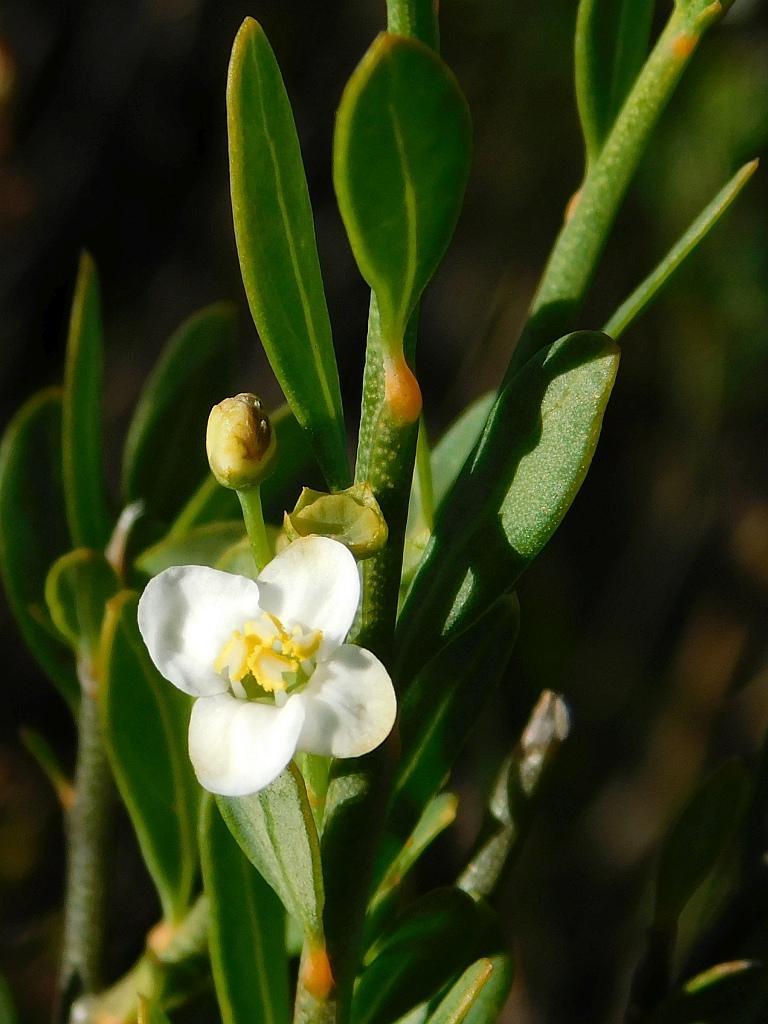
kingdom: Plantae
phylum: Tracheophyta
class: Magnoliopsida
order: Solanales
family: Montiniaceae
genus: Montinia
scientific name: Montinia caryophyllacea
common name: Wild clove-bush
